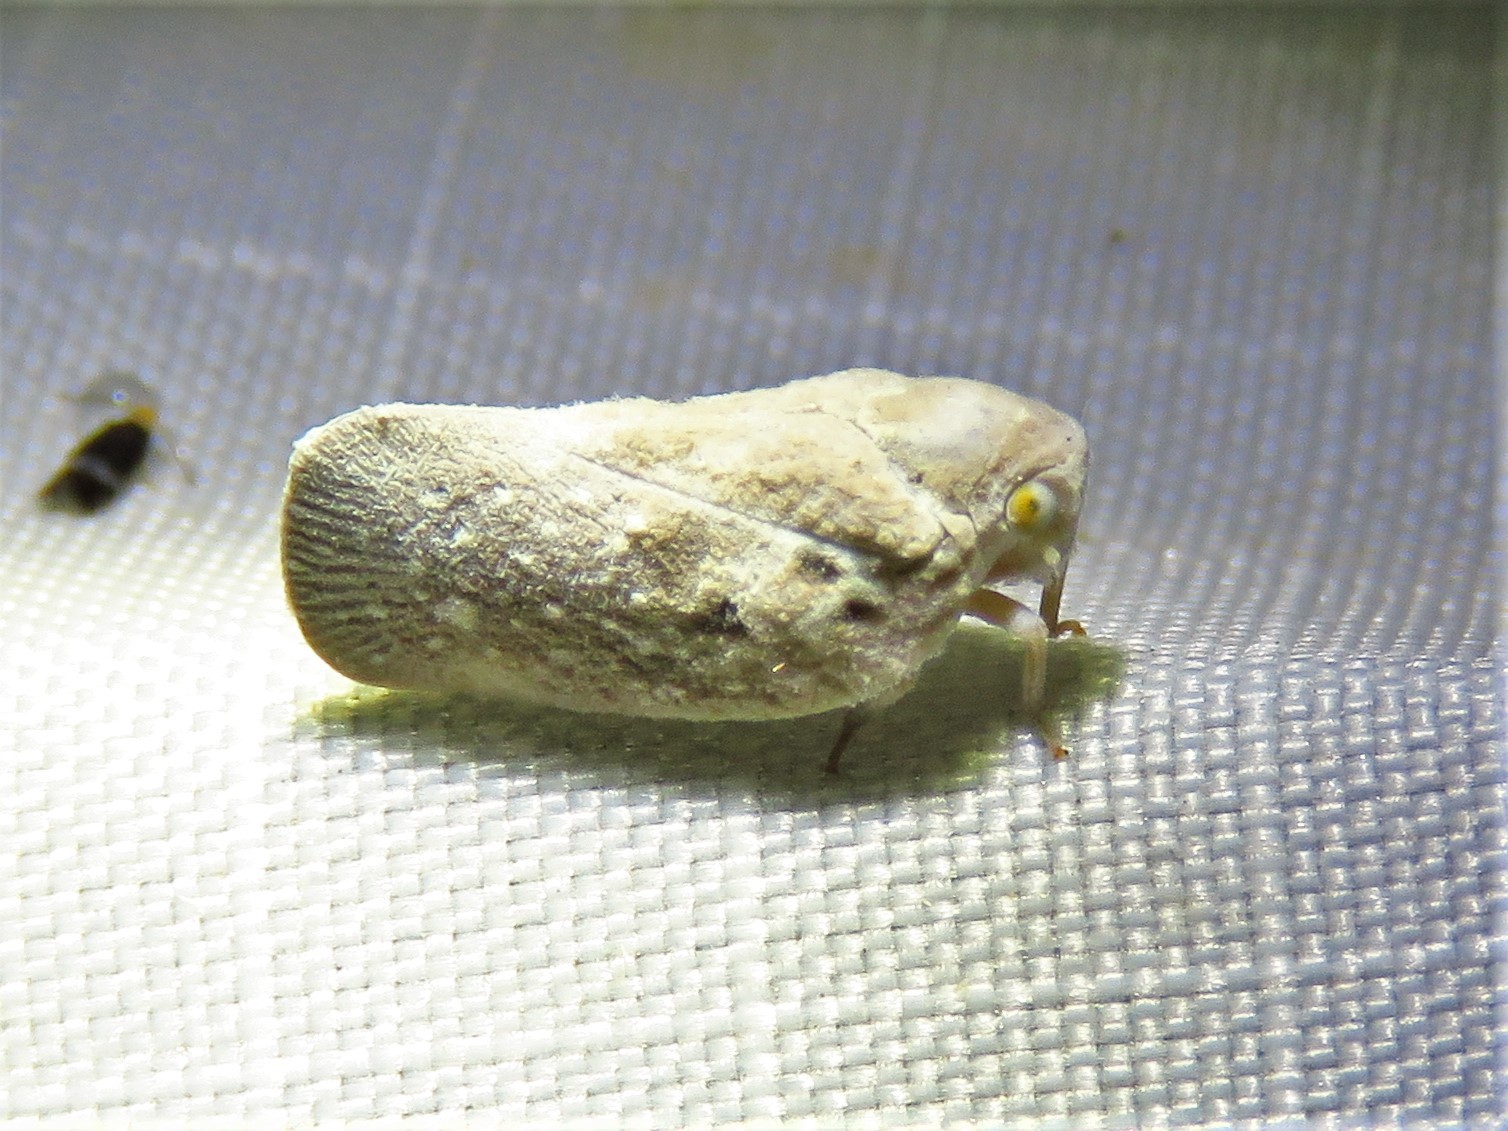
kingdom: Animalia
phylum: Arthropoda
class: Insecta
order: Hemiptera
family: Flatidae
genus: Metcalfa
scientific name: Metcalfa pruinosa
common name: Citrus flatid planthopper
